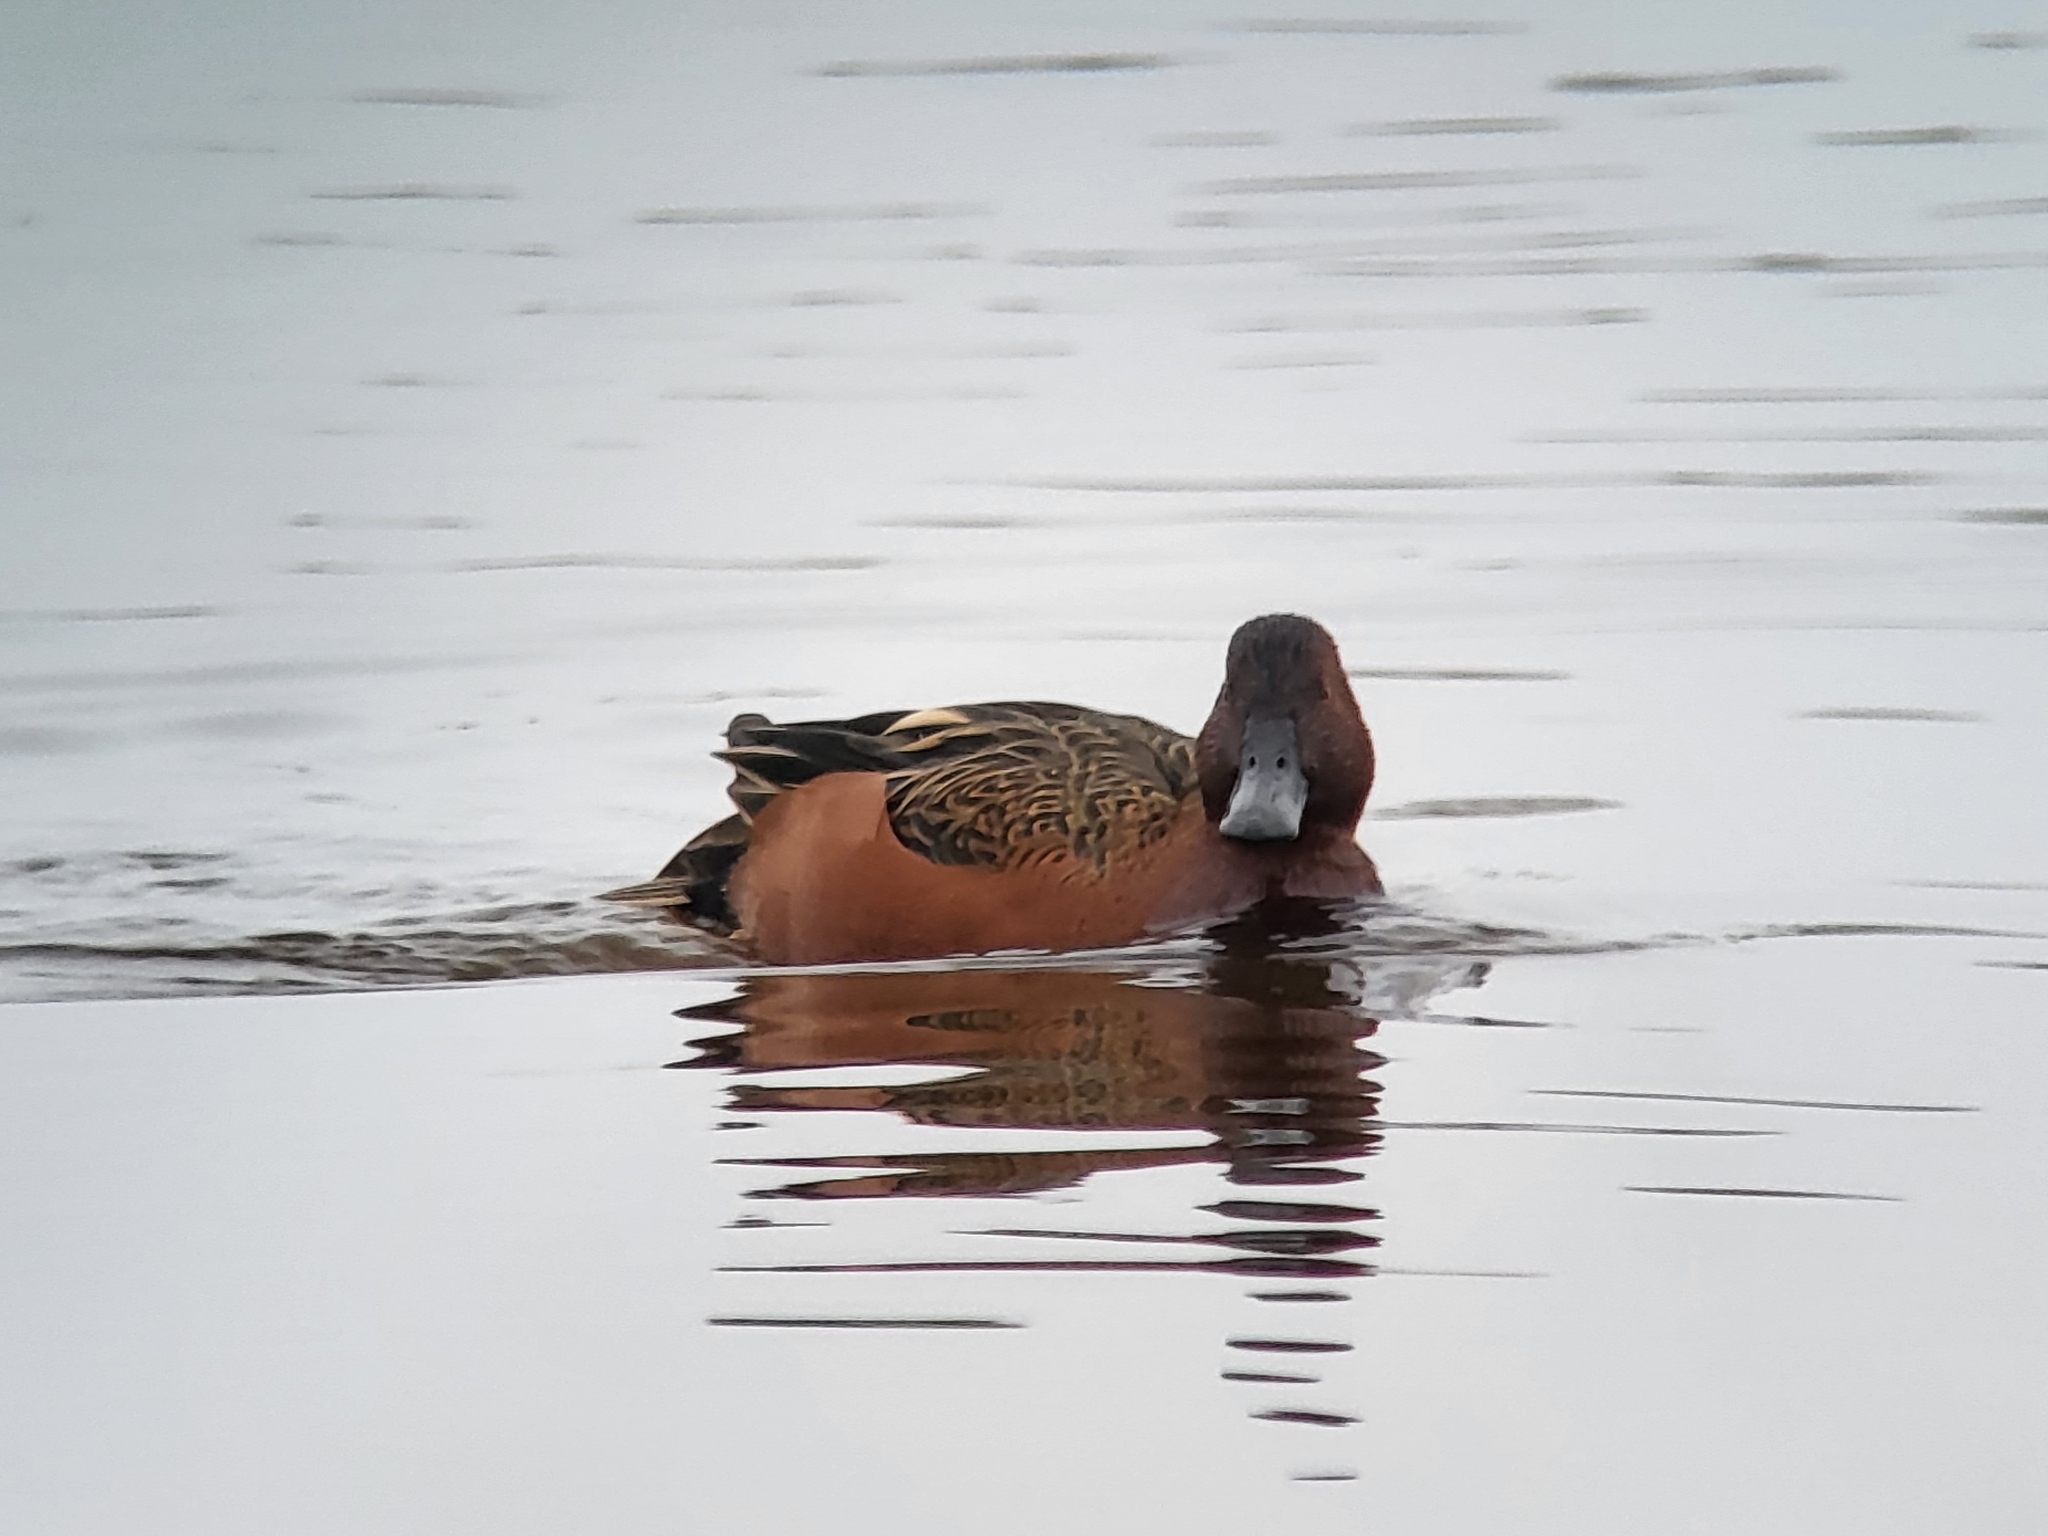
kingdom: Animalia
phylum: Chordata
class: Aves
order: Anseriformes
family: Anatidae
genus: Spatula
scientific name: Spatula cyanoptera
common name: Cinnamon teal
